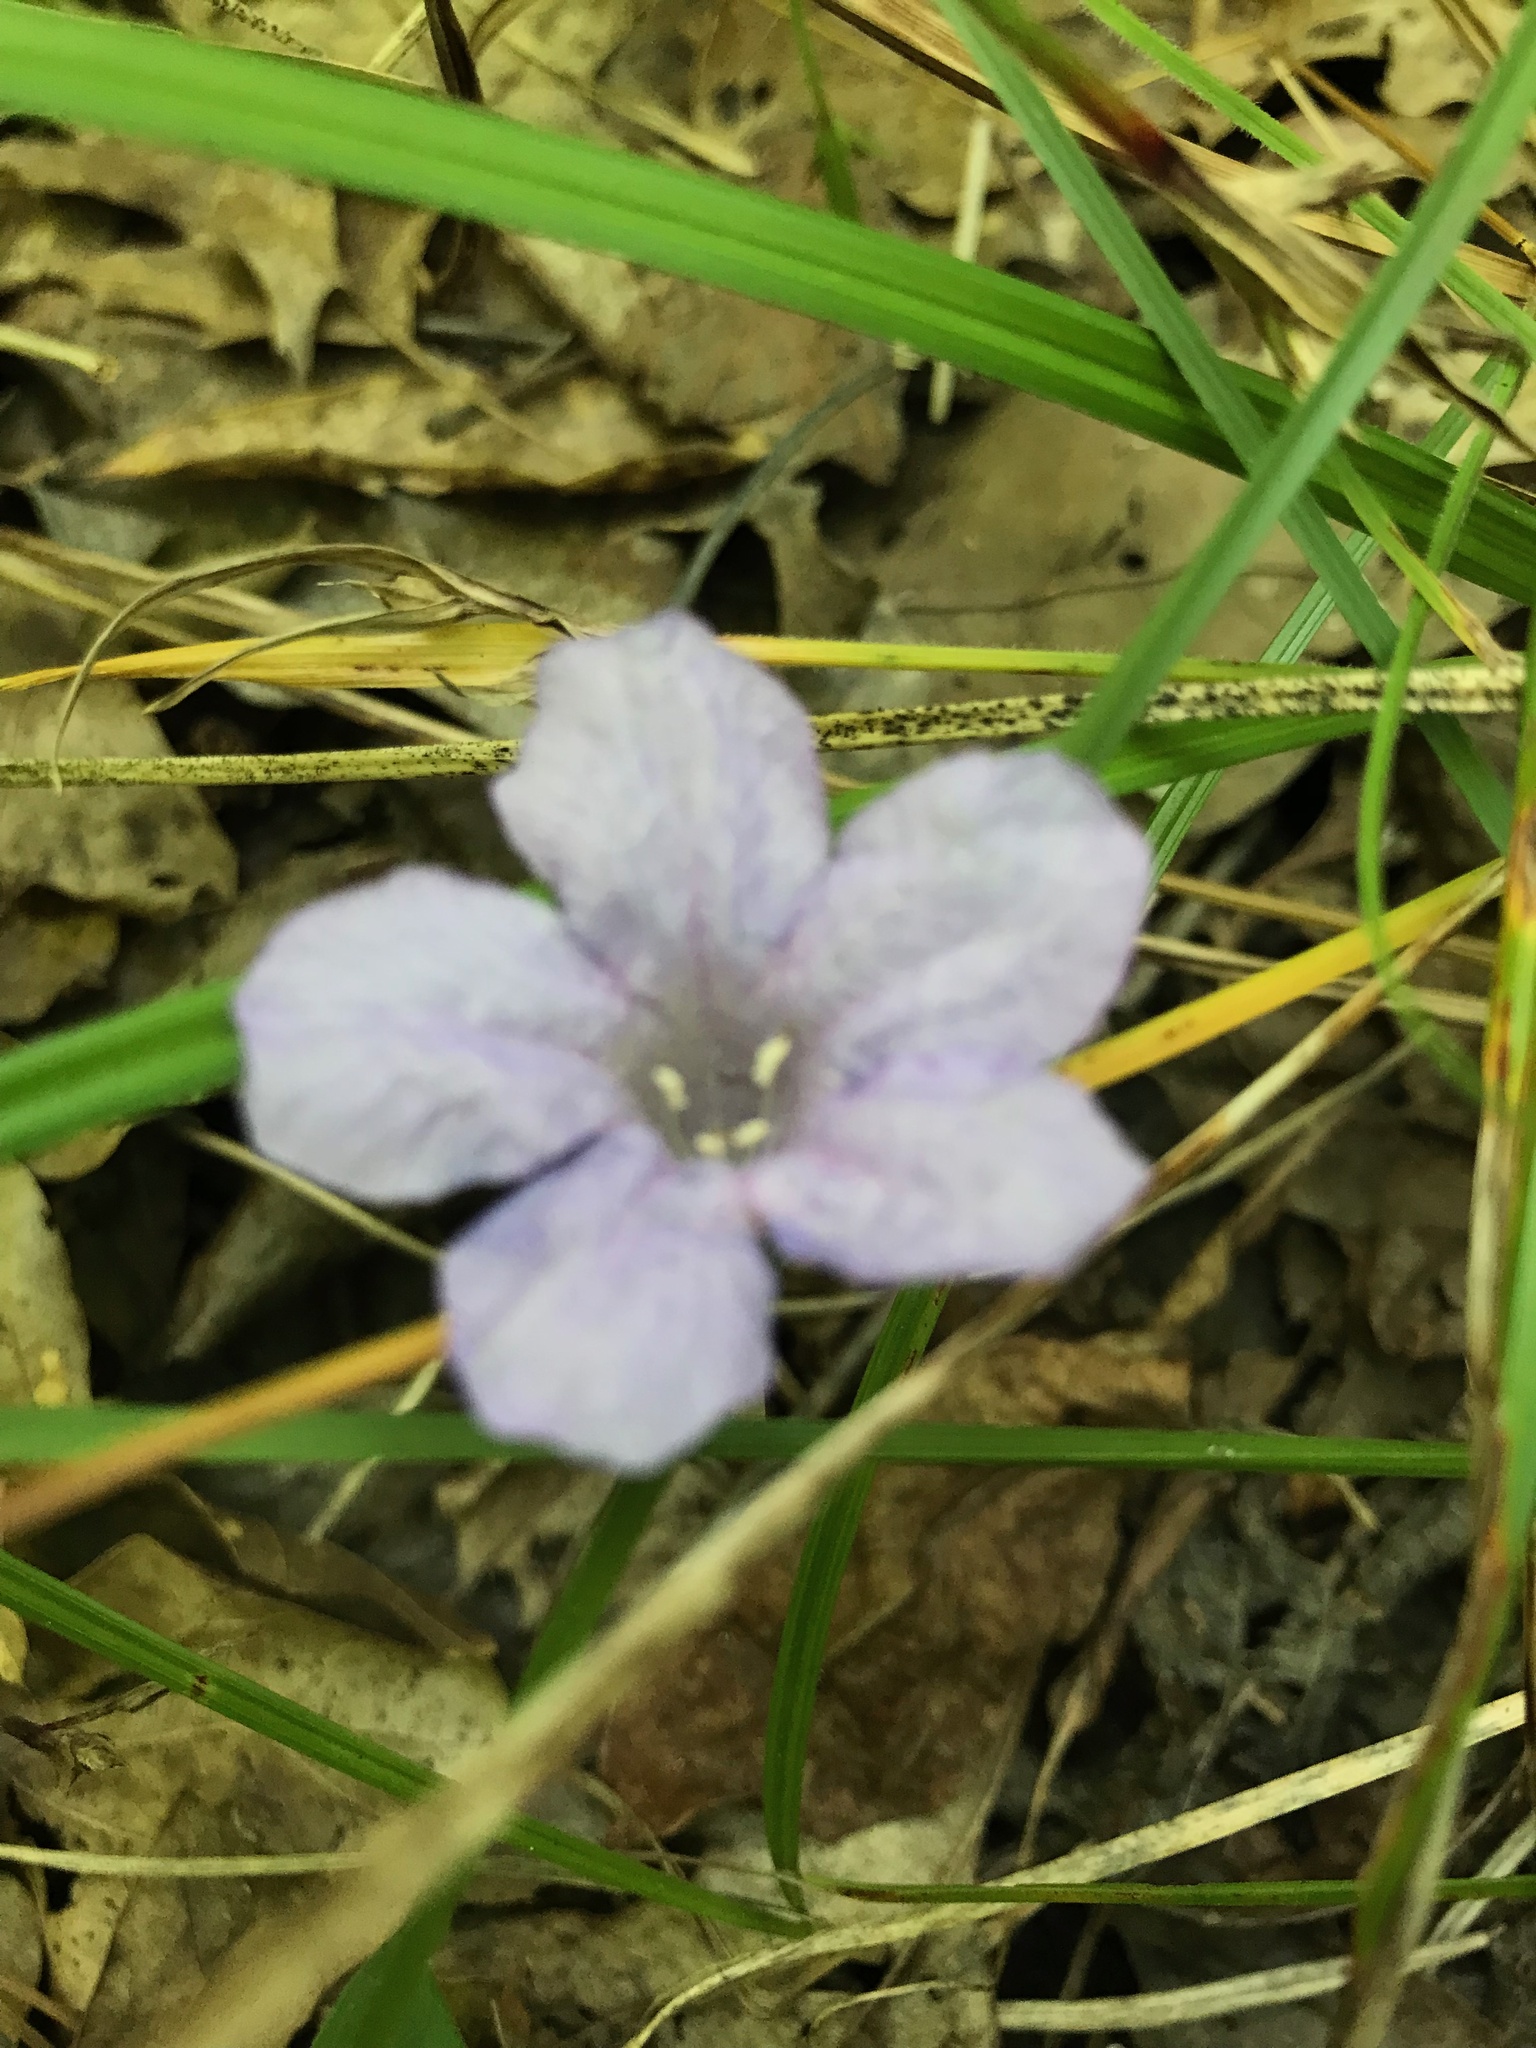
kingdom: Plantae
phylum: Tracheophyta
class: Magnoliopsida
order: Lamiales
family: Acanthaceae
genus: Ruellia
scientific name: Ruellia caroliniensis
